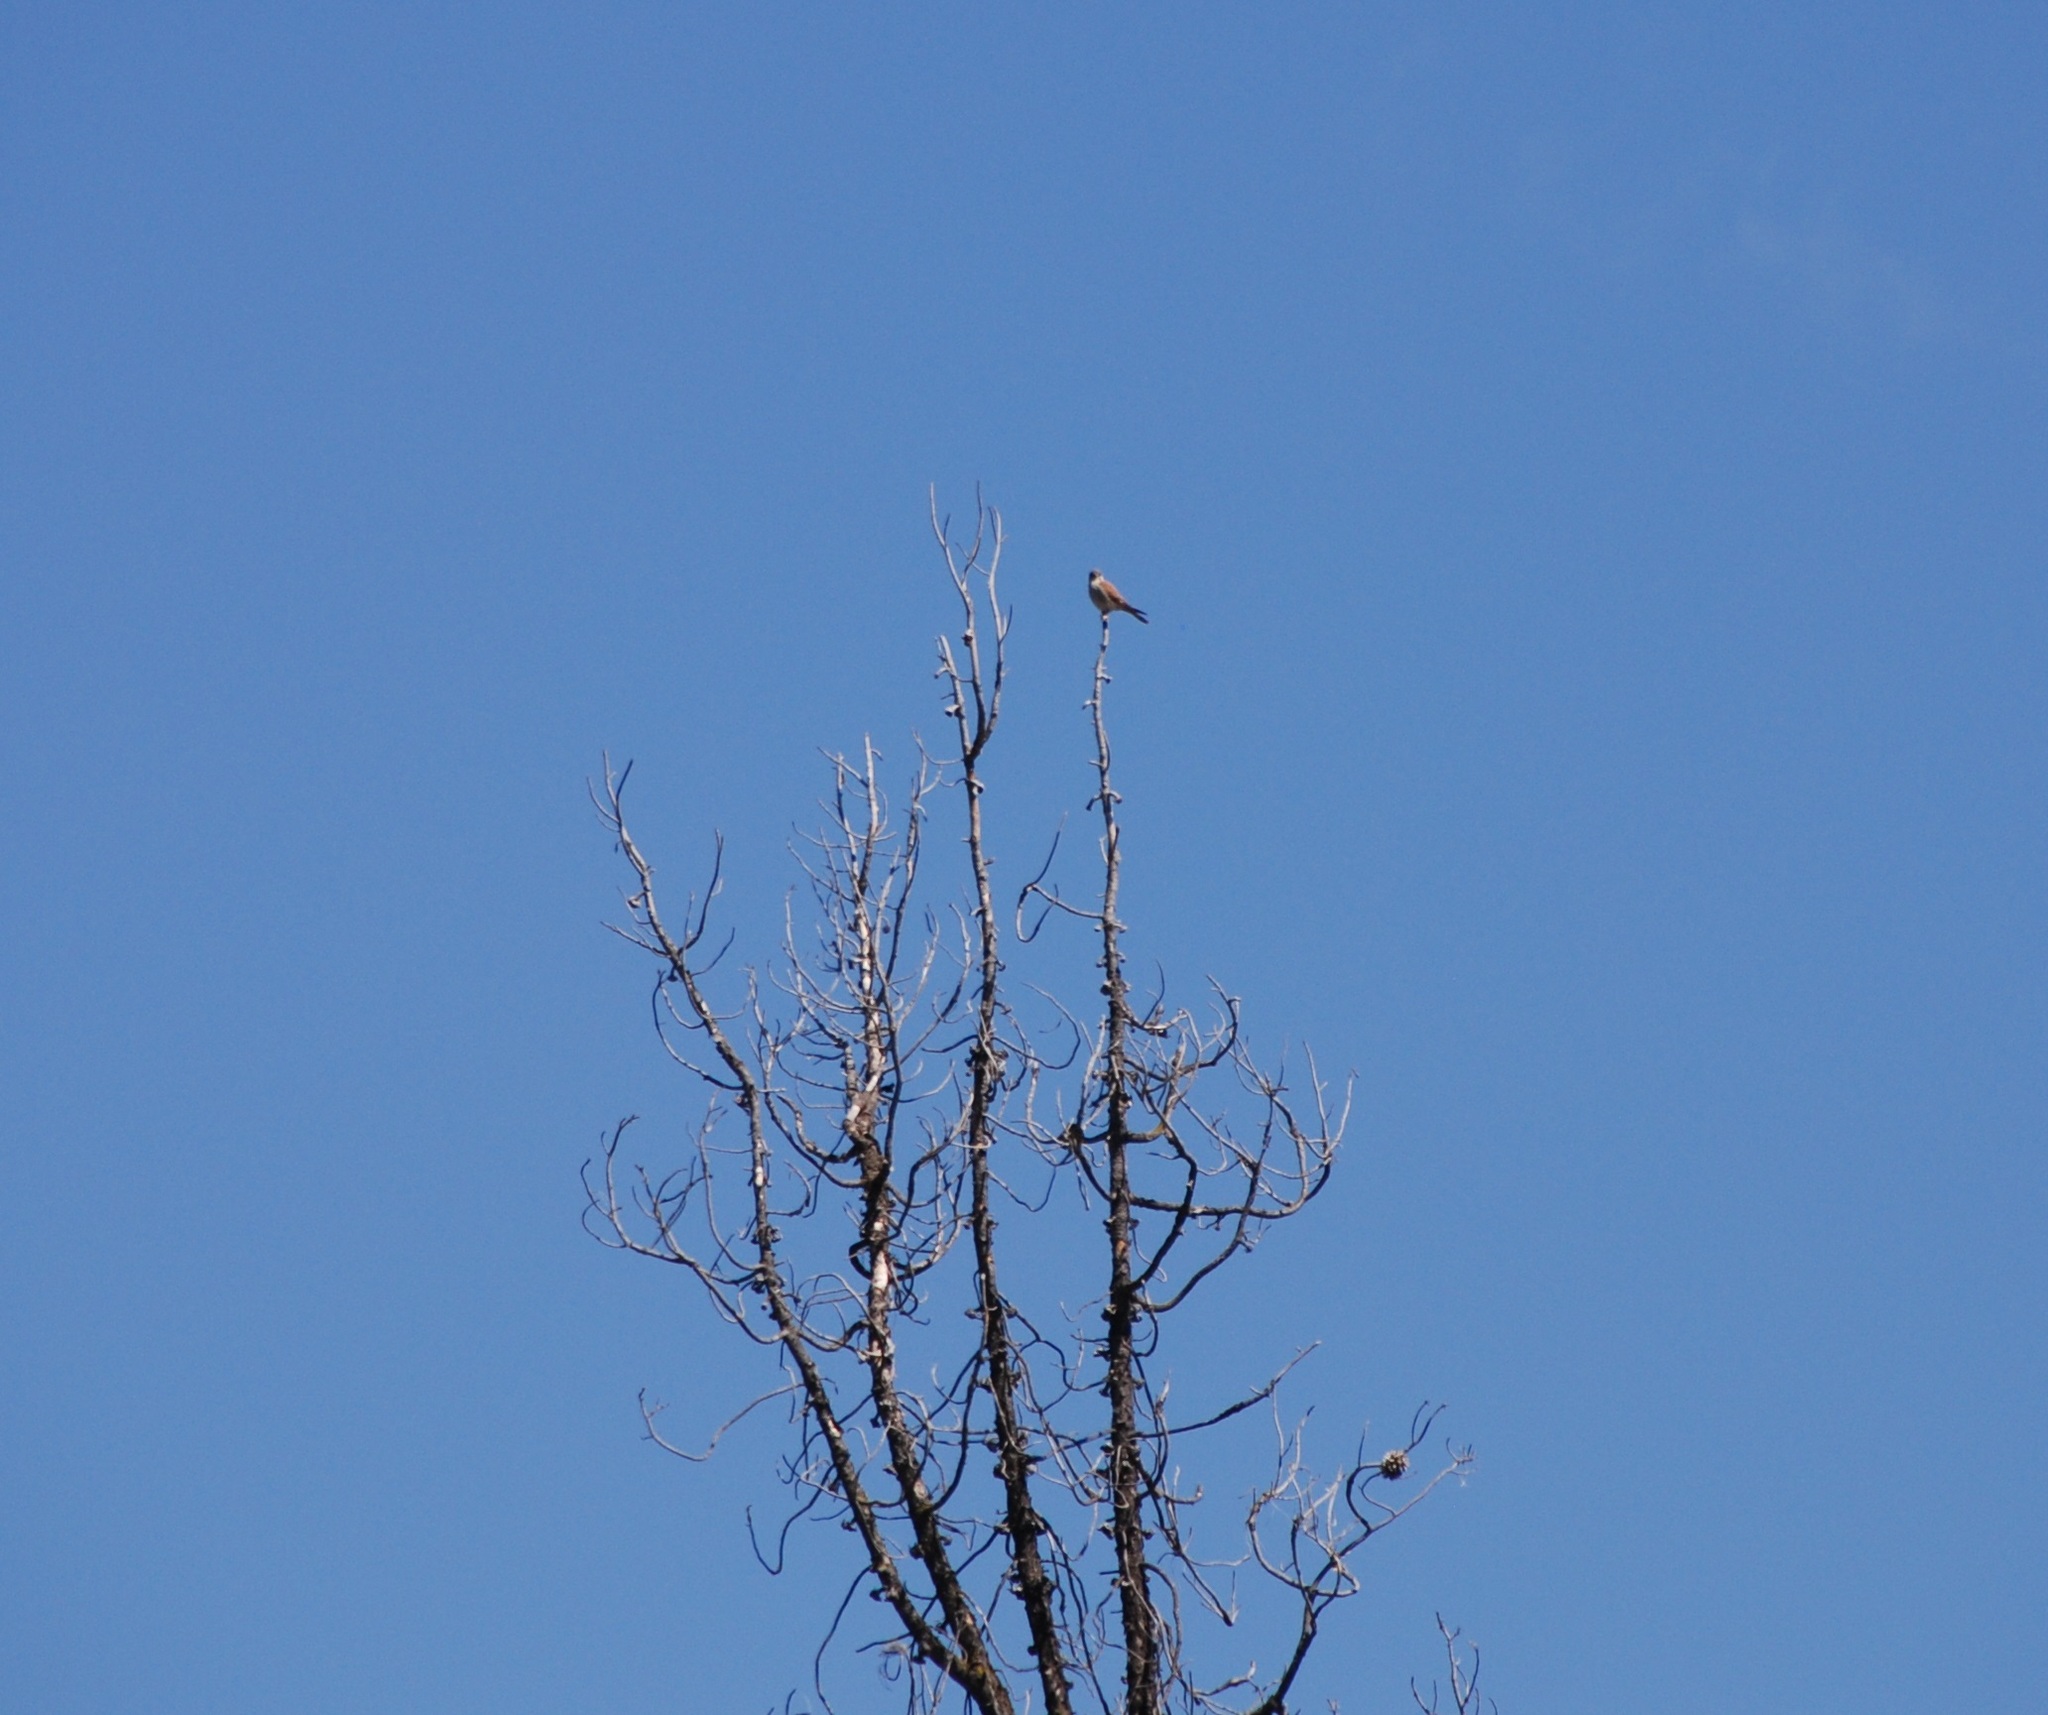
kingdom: Animalia
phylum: Chordata
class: Aves
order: Falconiformes
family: Falconidae
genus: Falco
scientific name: Falco sparverius
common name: American kestrel
